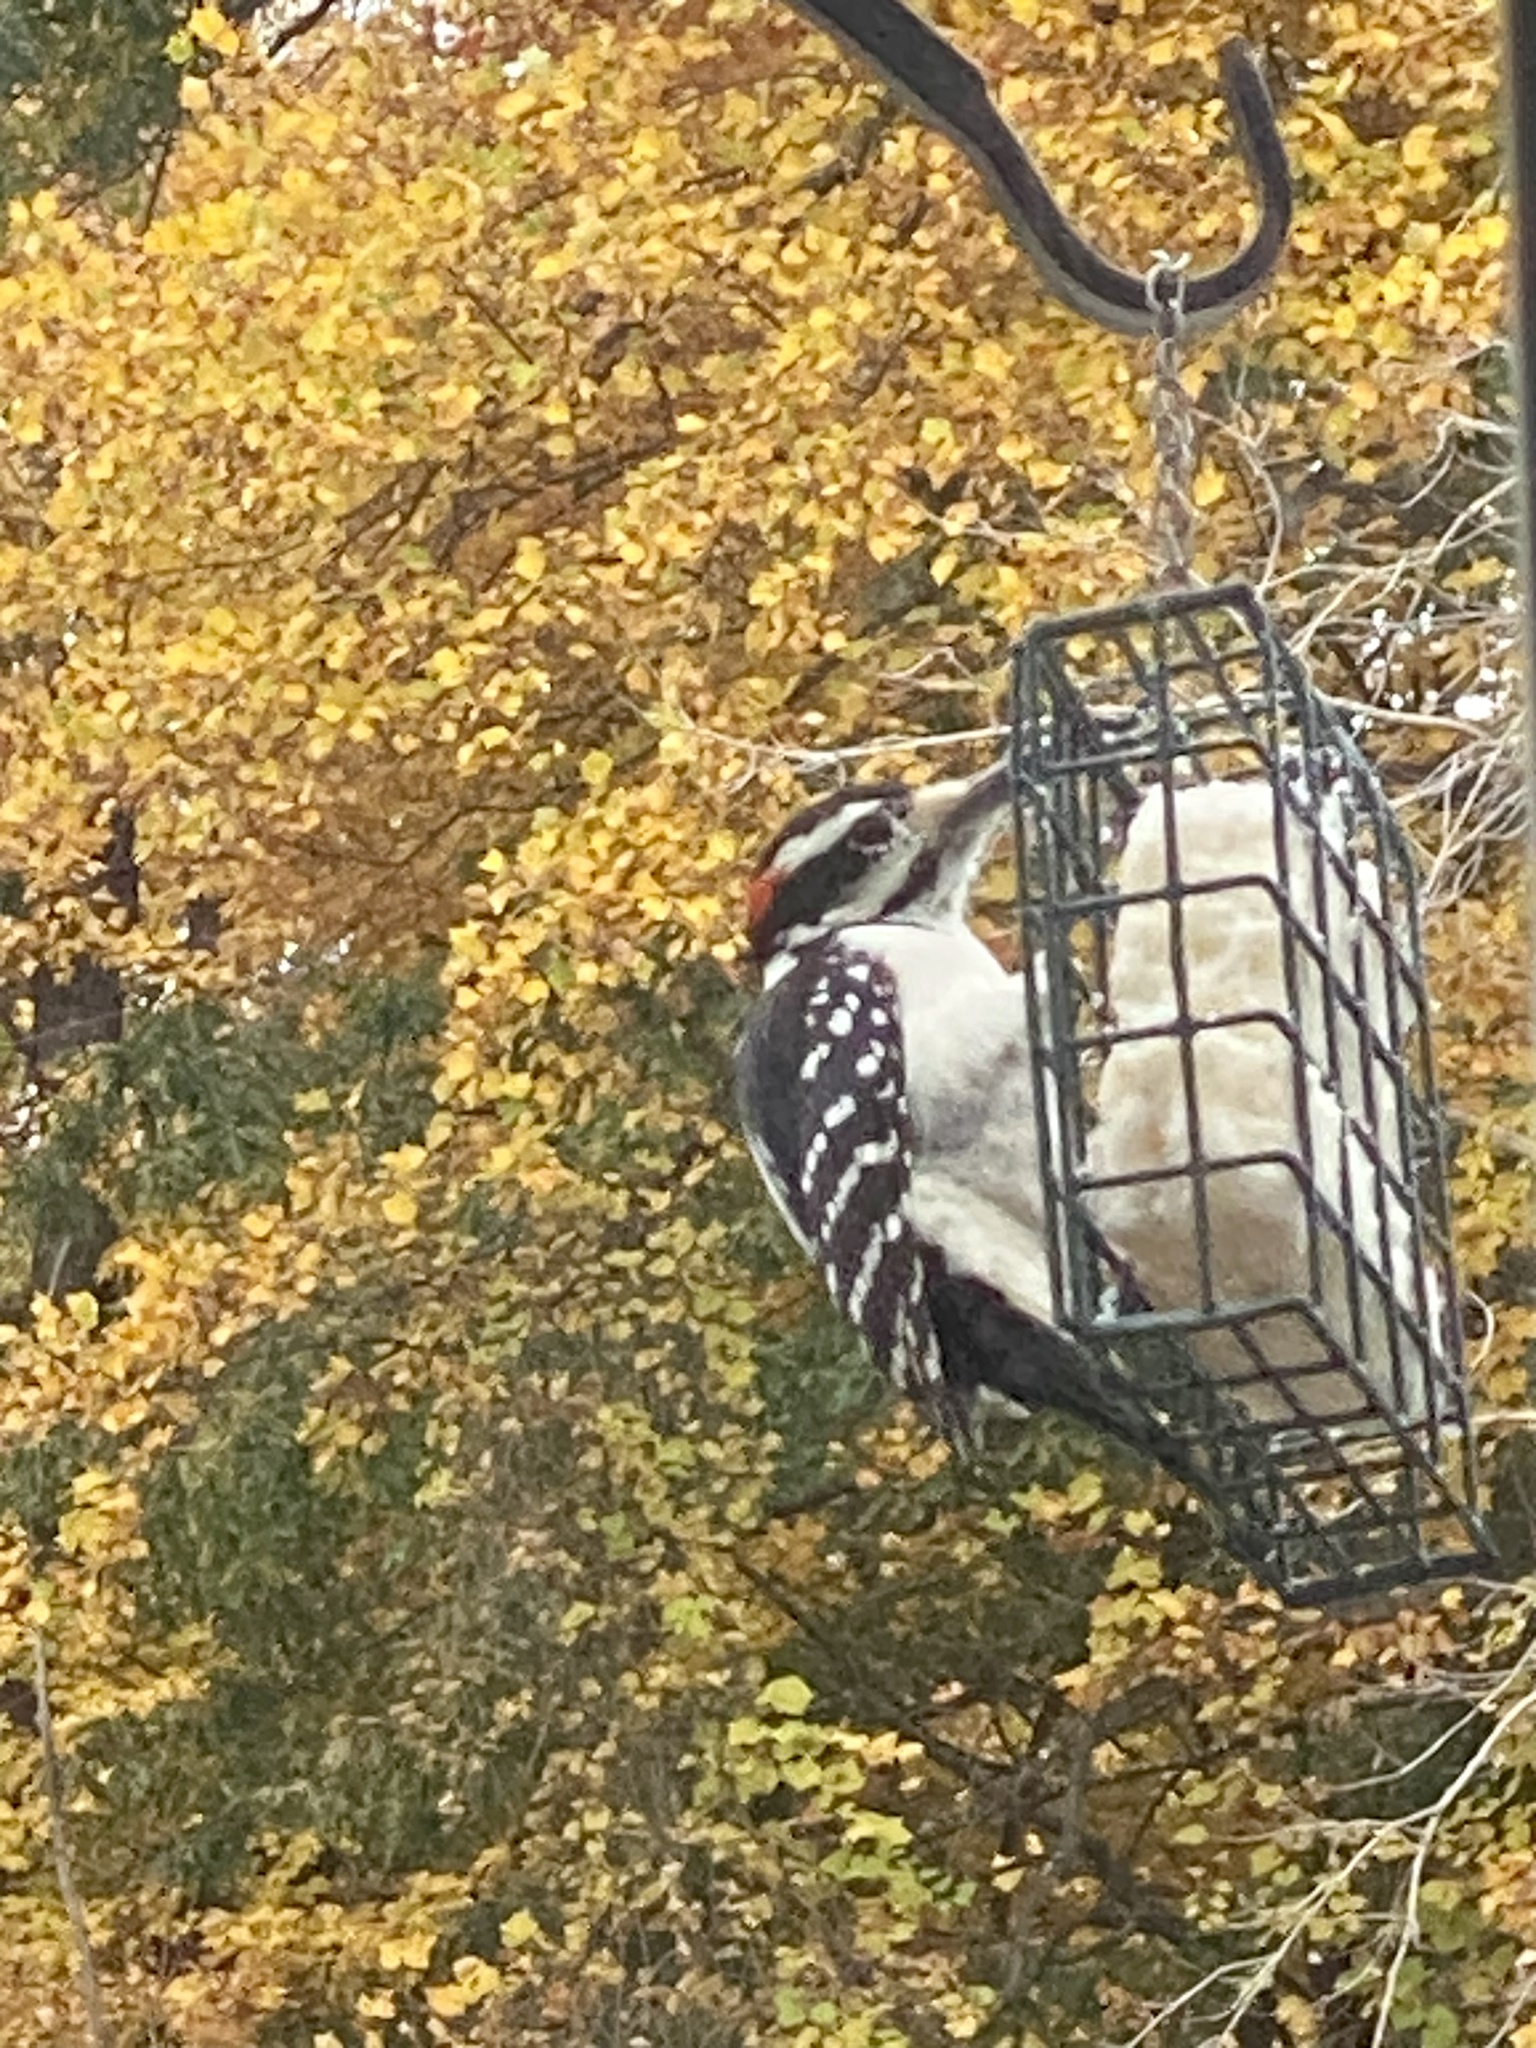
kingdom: Animalia
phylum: Chordata
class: Aves
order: Piciformes
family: Picidae
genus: Leuconotopicus
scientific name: Leuconotopicus villosus
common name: Hairy woodpecker
